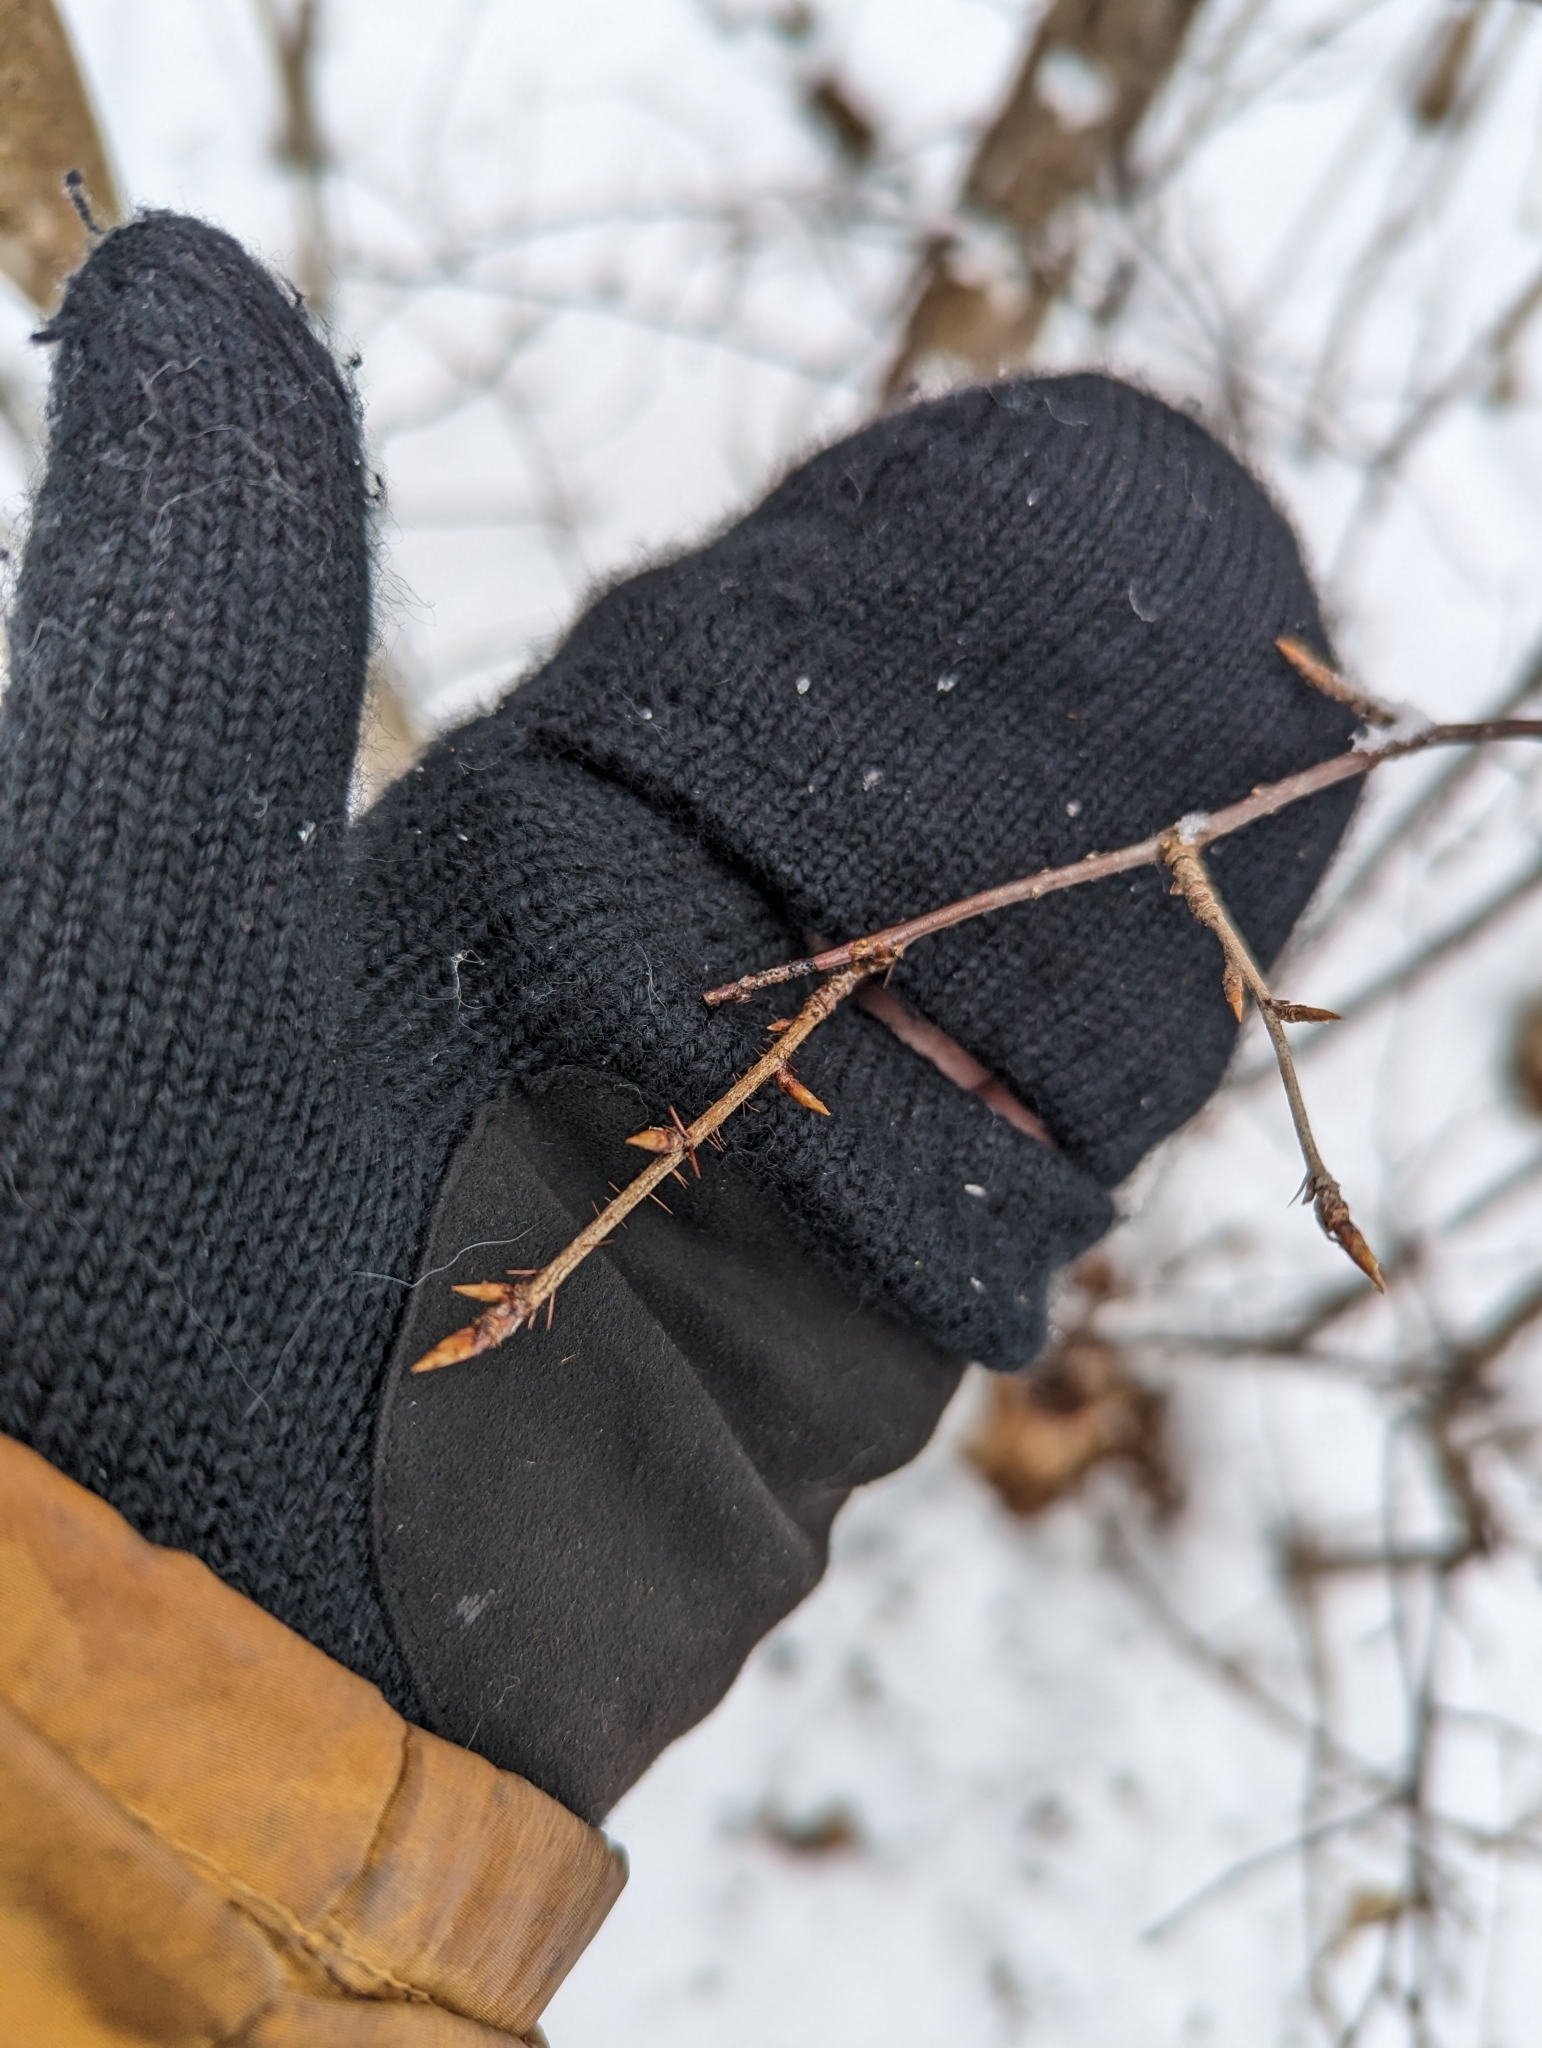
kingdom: Plantae
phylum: Tracheophyta
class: Magnoliopsida
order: Saxifragales
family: Grossulariaceae
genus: Ribes
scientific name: Ribes cynosbati
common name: American gooseberry
